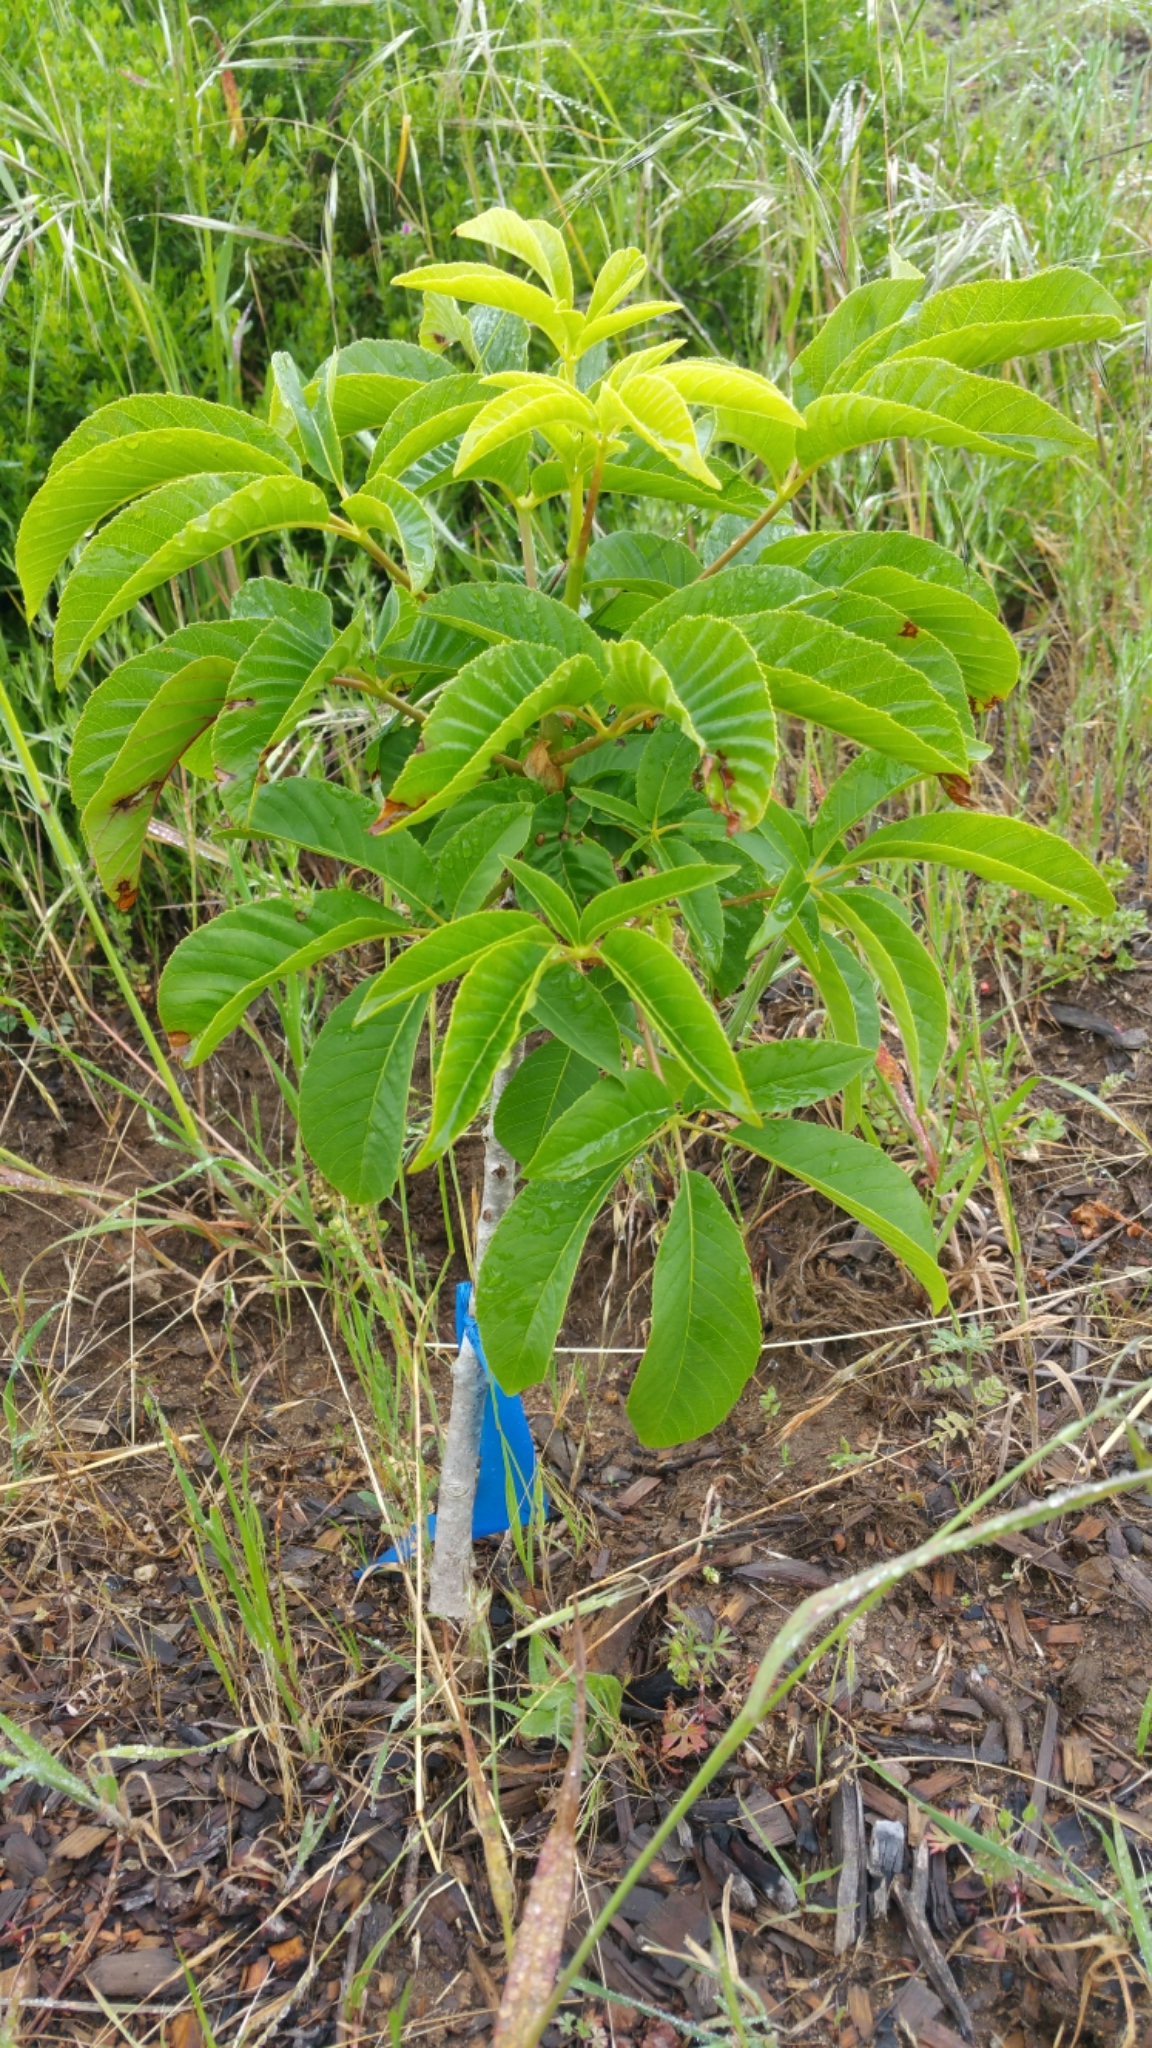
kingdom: Plantae
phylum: Tracheophyta
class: Magnoliopsida
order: Sapindales
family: Sapindaceae
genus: Aesculus
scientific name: Aesculus californica
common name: California buckeye
